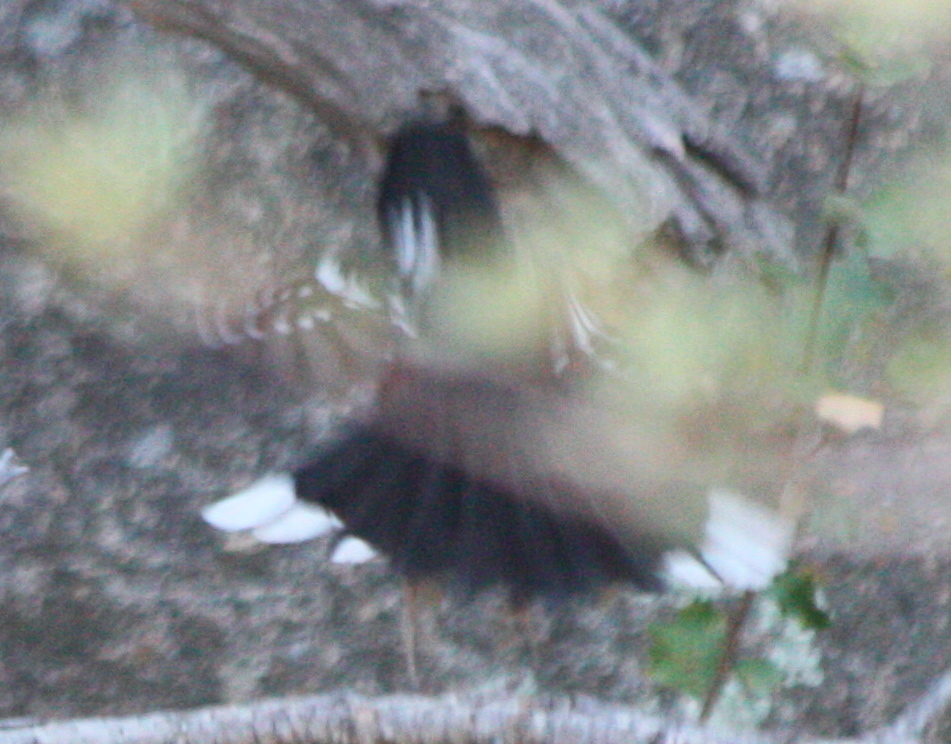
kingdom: Animalia
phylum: Chordata
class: Aves
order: Passeriformes
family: Passerellidae
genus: Pipilo
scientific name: Pipilo maculatus
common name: Spotted towhee
